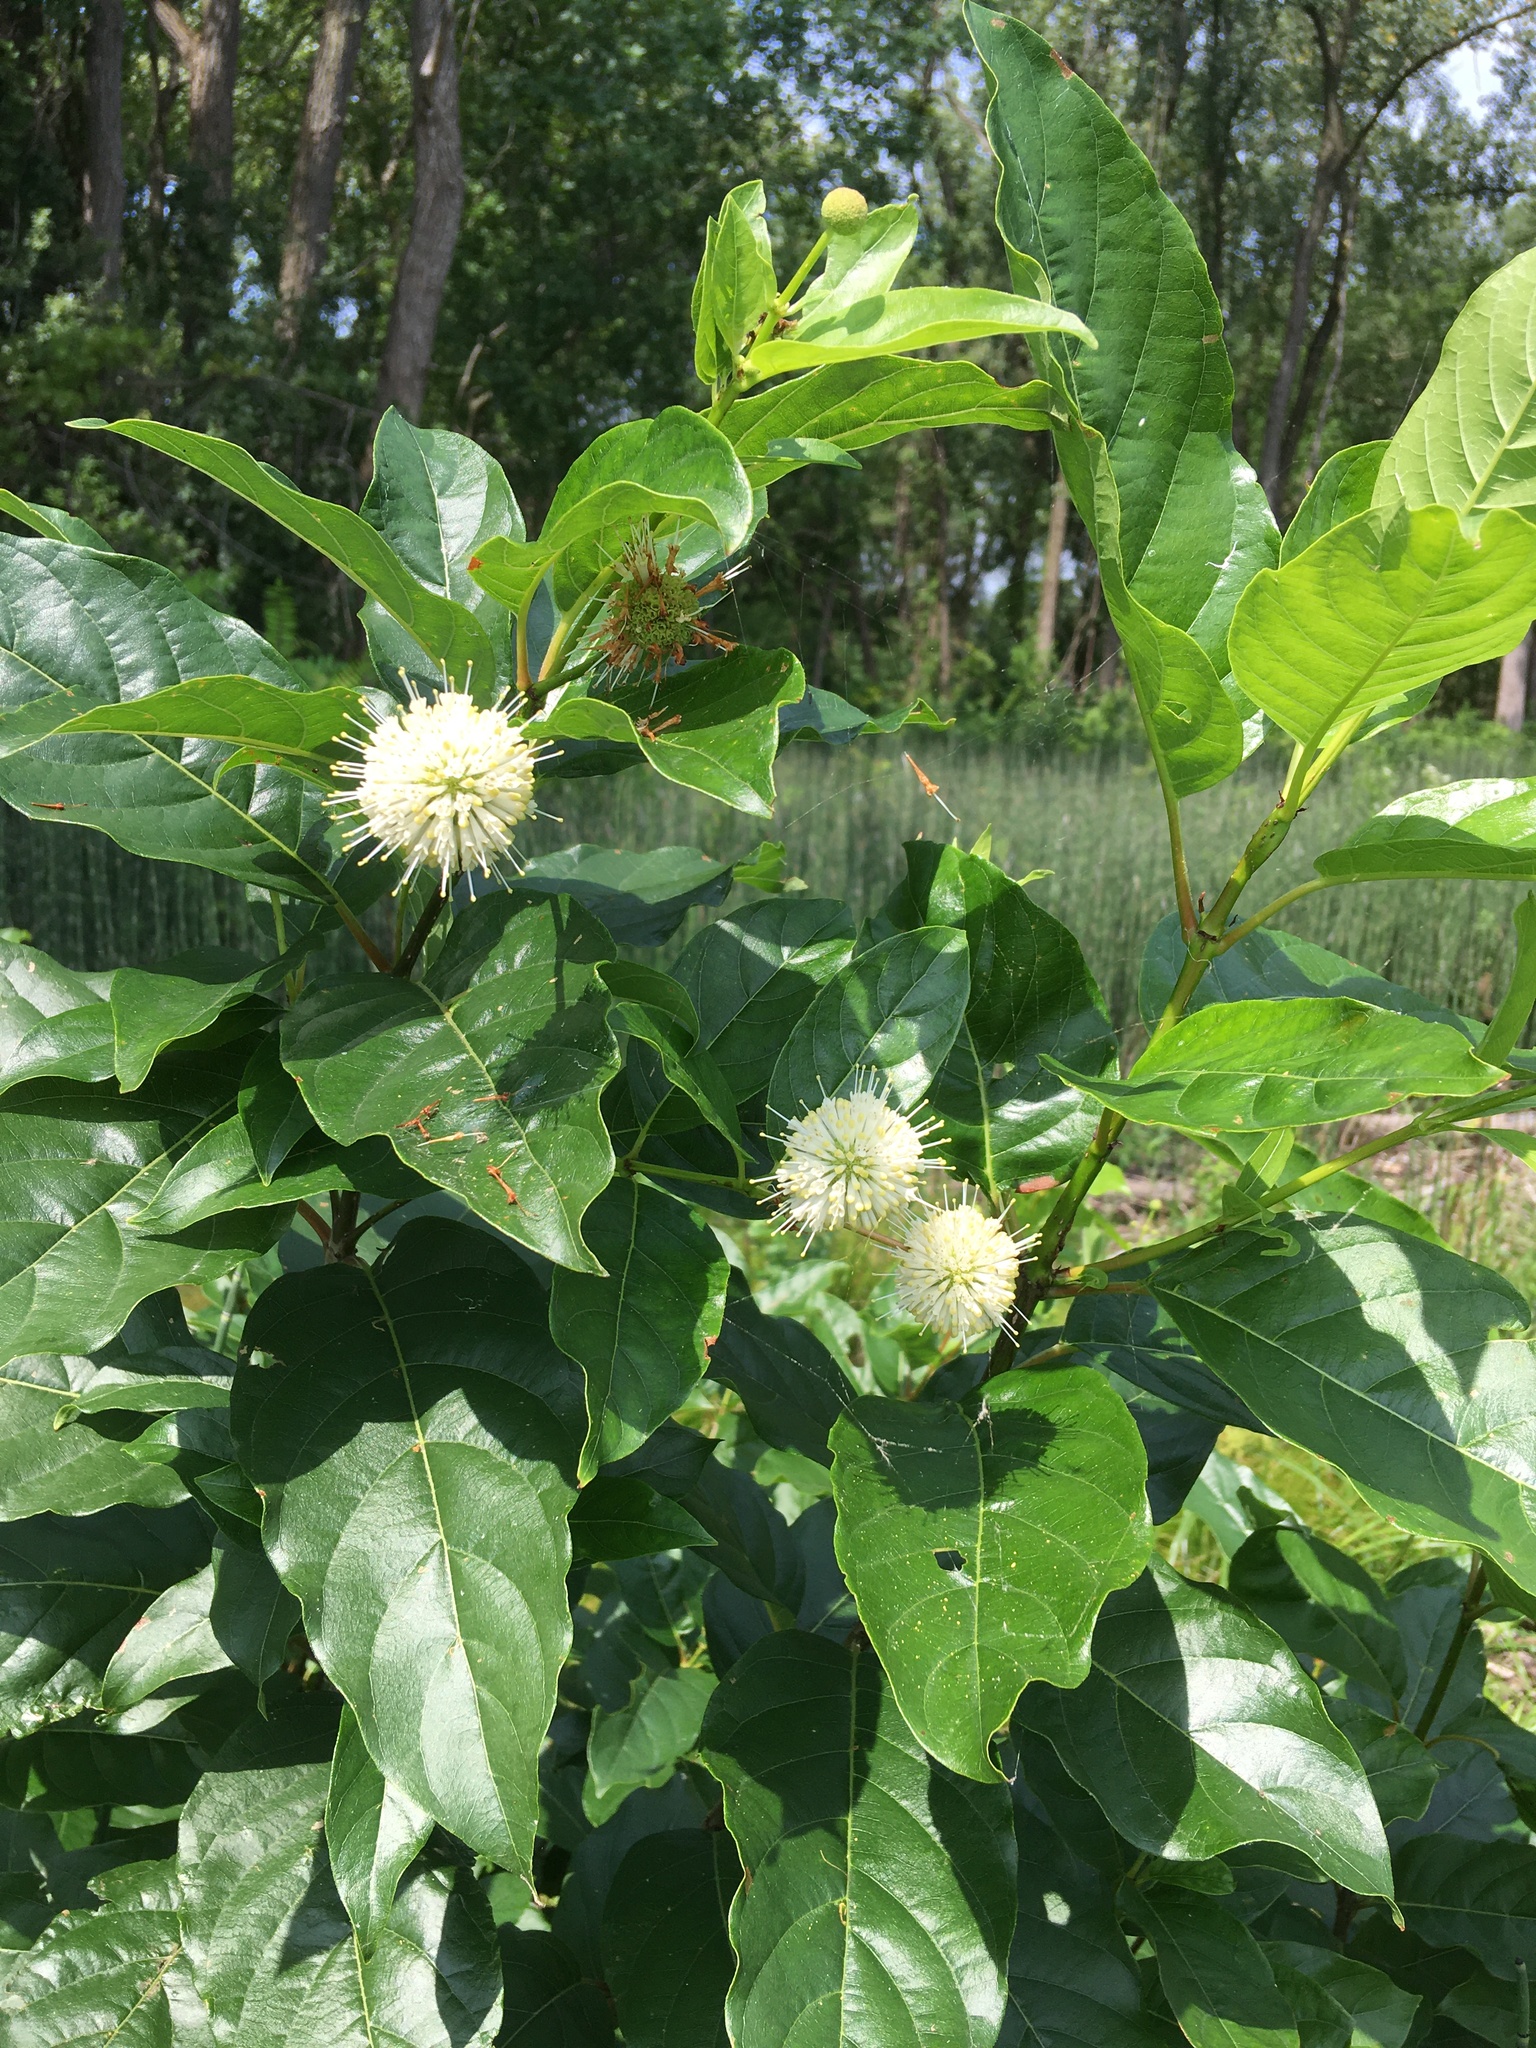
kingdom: Plantae
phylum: Tracheophyta
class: Magnoliopsida
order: Gentianales
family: Rubiaceae
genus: Cephalanthus
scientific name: Cephalanthus occidentalis
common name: Button-willow
